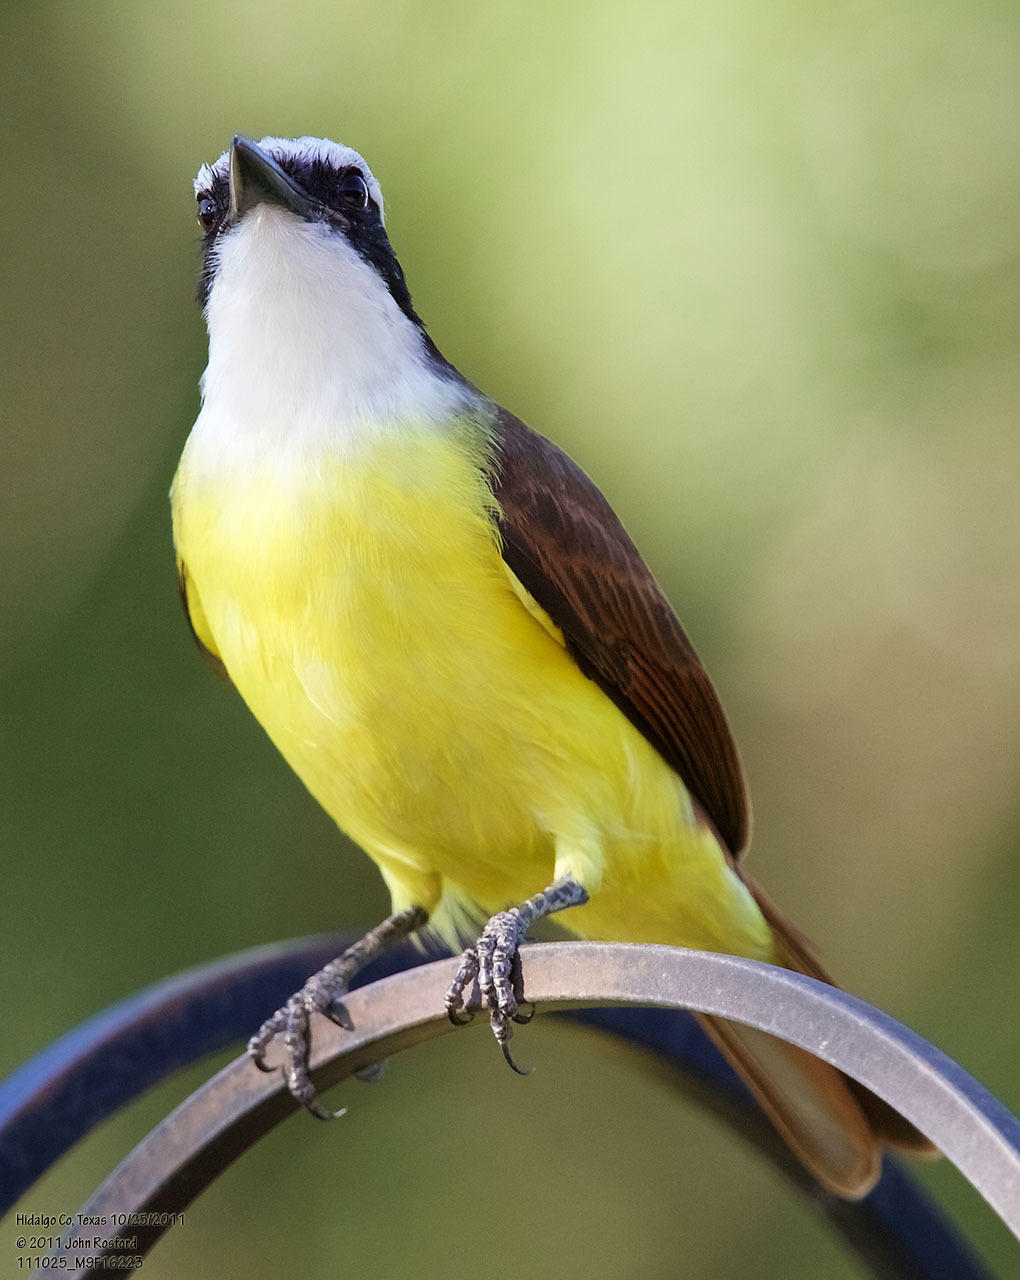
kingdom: Animalia
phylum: Chordata
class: Aves
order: Passeriformes
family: Tyrannidae
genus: Pitangus
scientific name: Pitangus sulphuratus
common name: Great kiskadee
